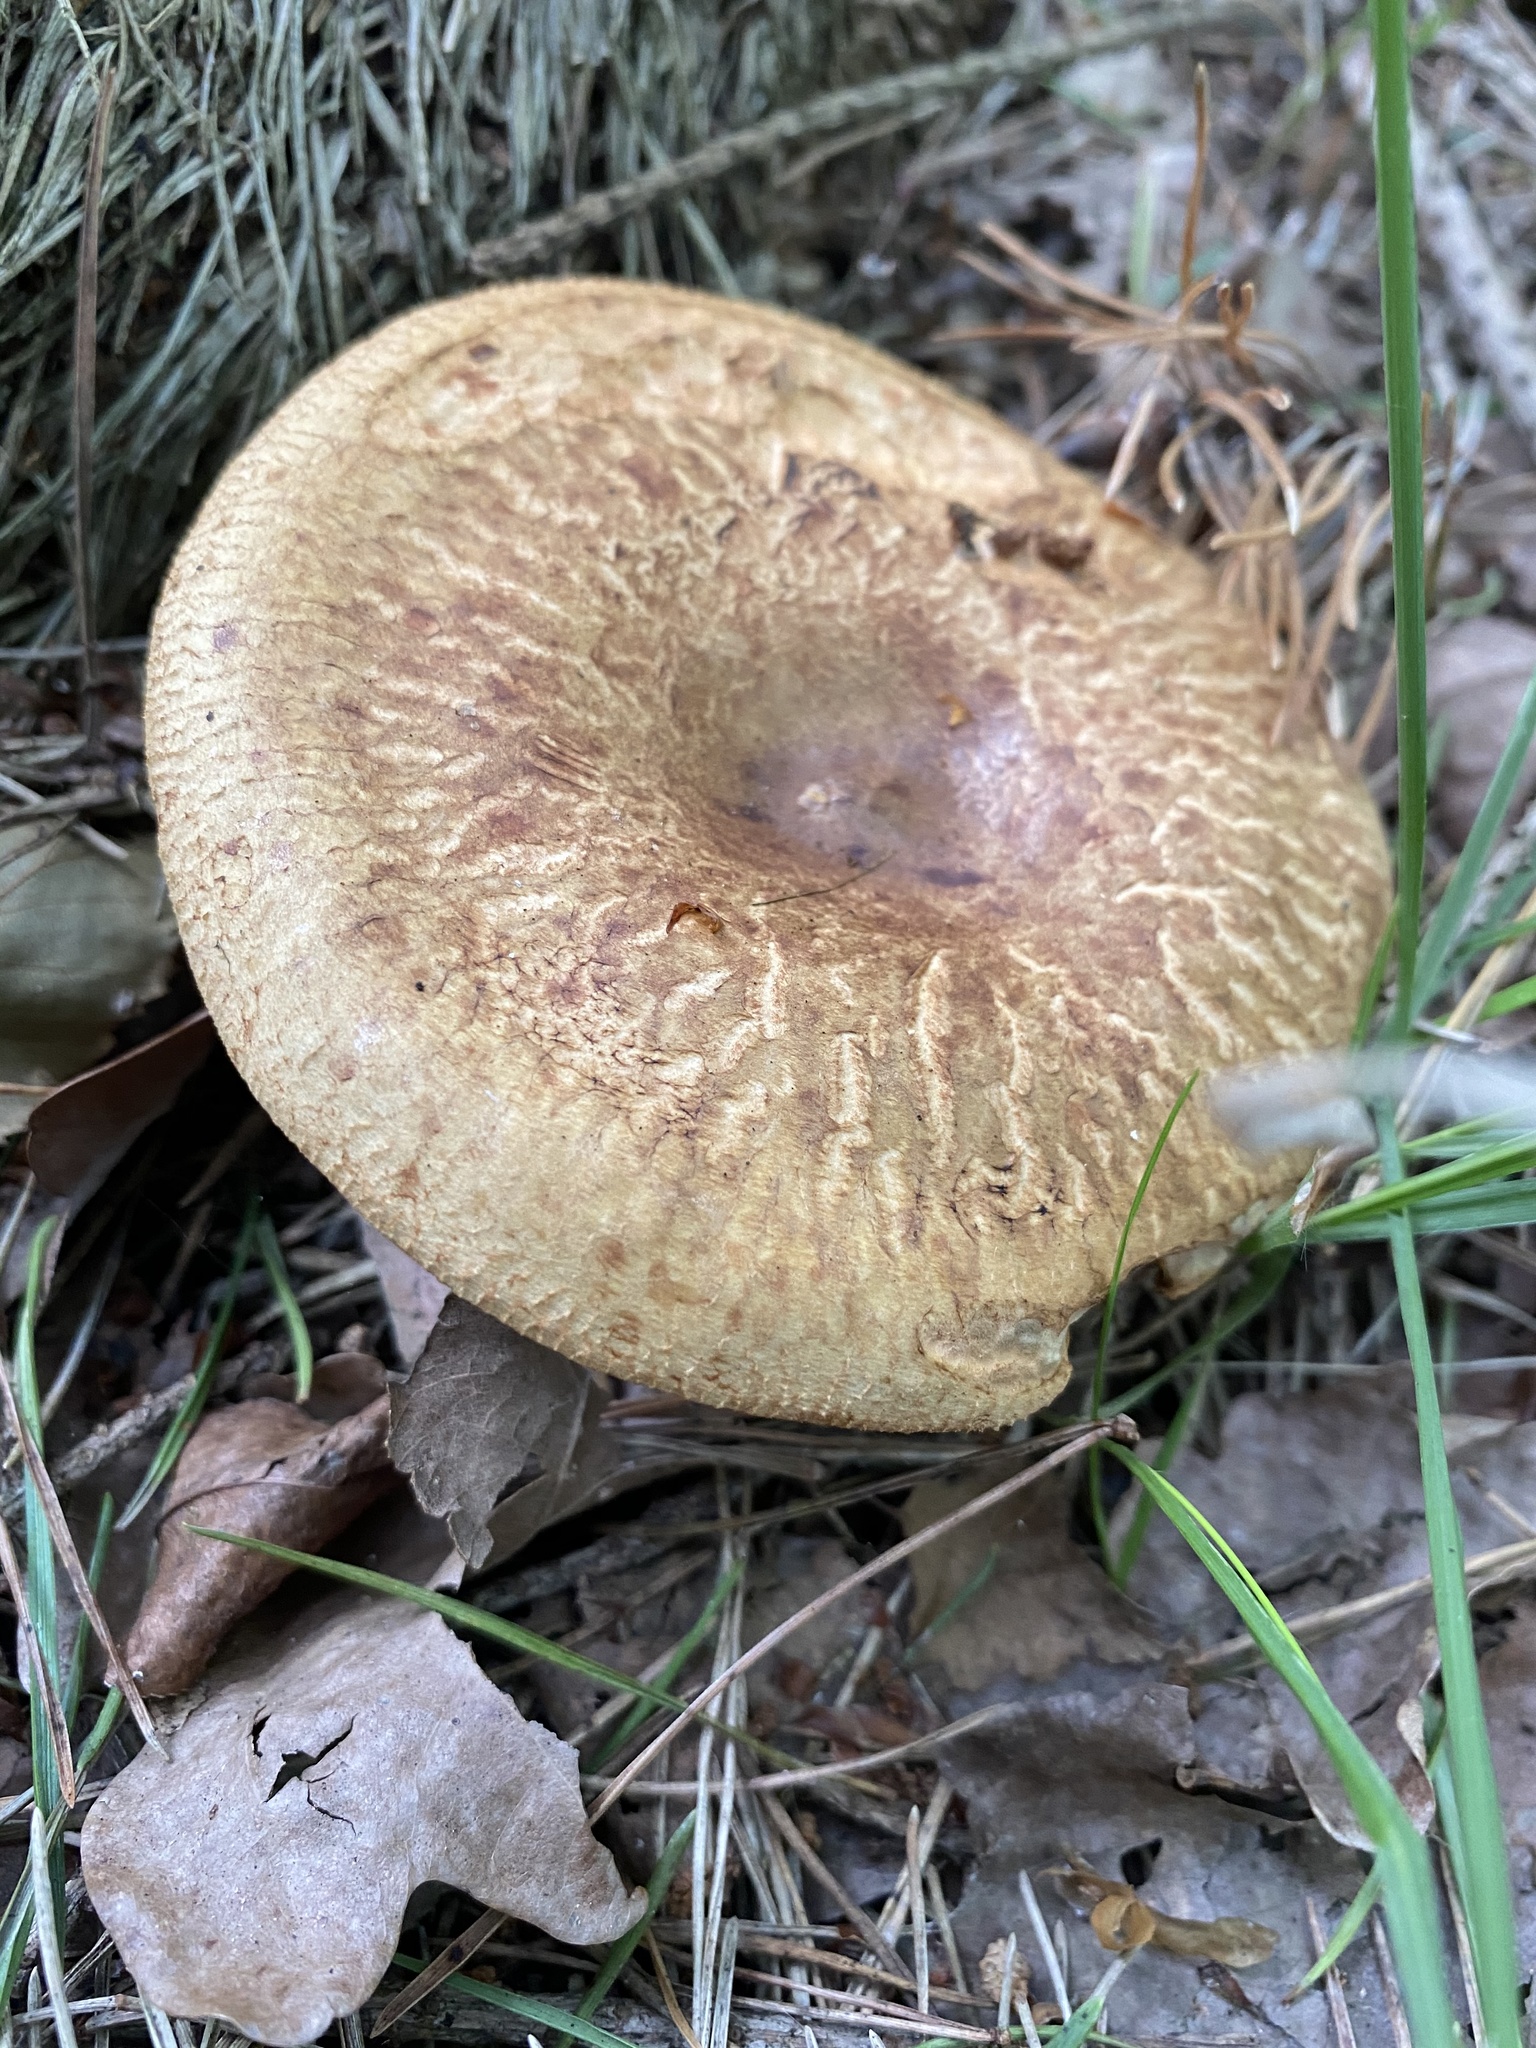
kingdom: Fungi
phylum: Basidiomycota
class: Agaricomycetes
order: Boletales
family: Paxillaceae
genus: Paxillus
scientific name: Paxillus involutus
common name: Brown roll rim
